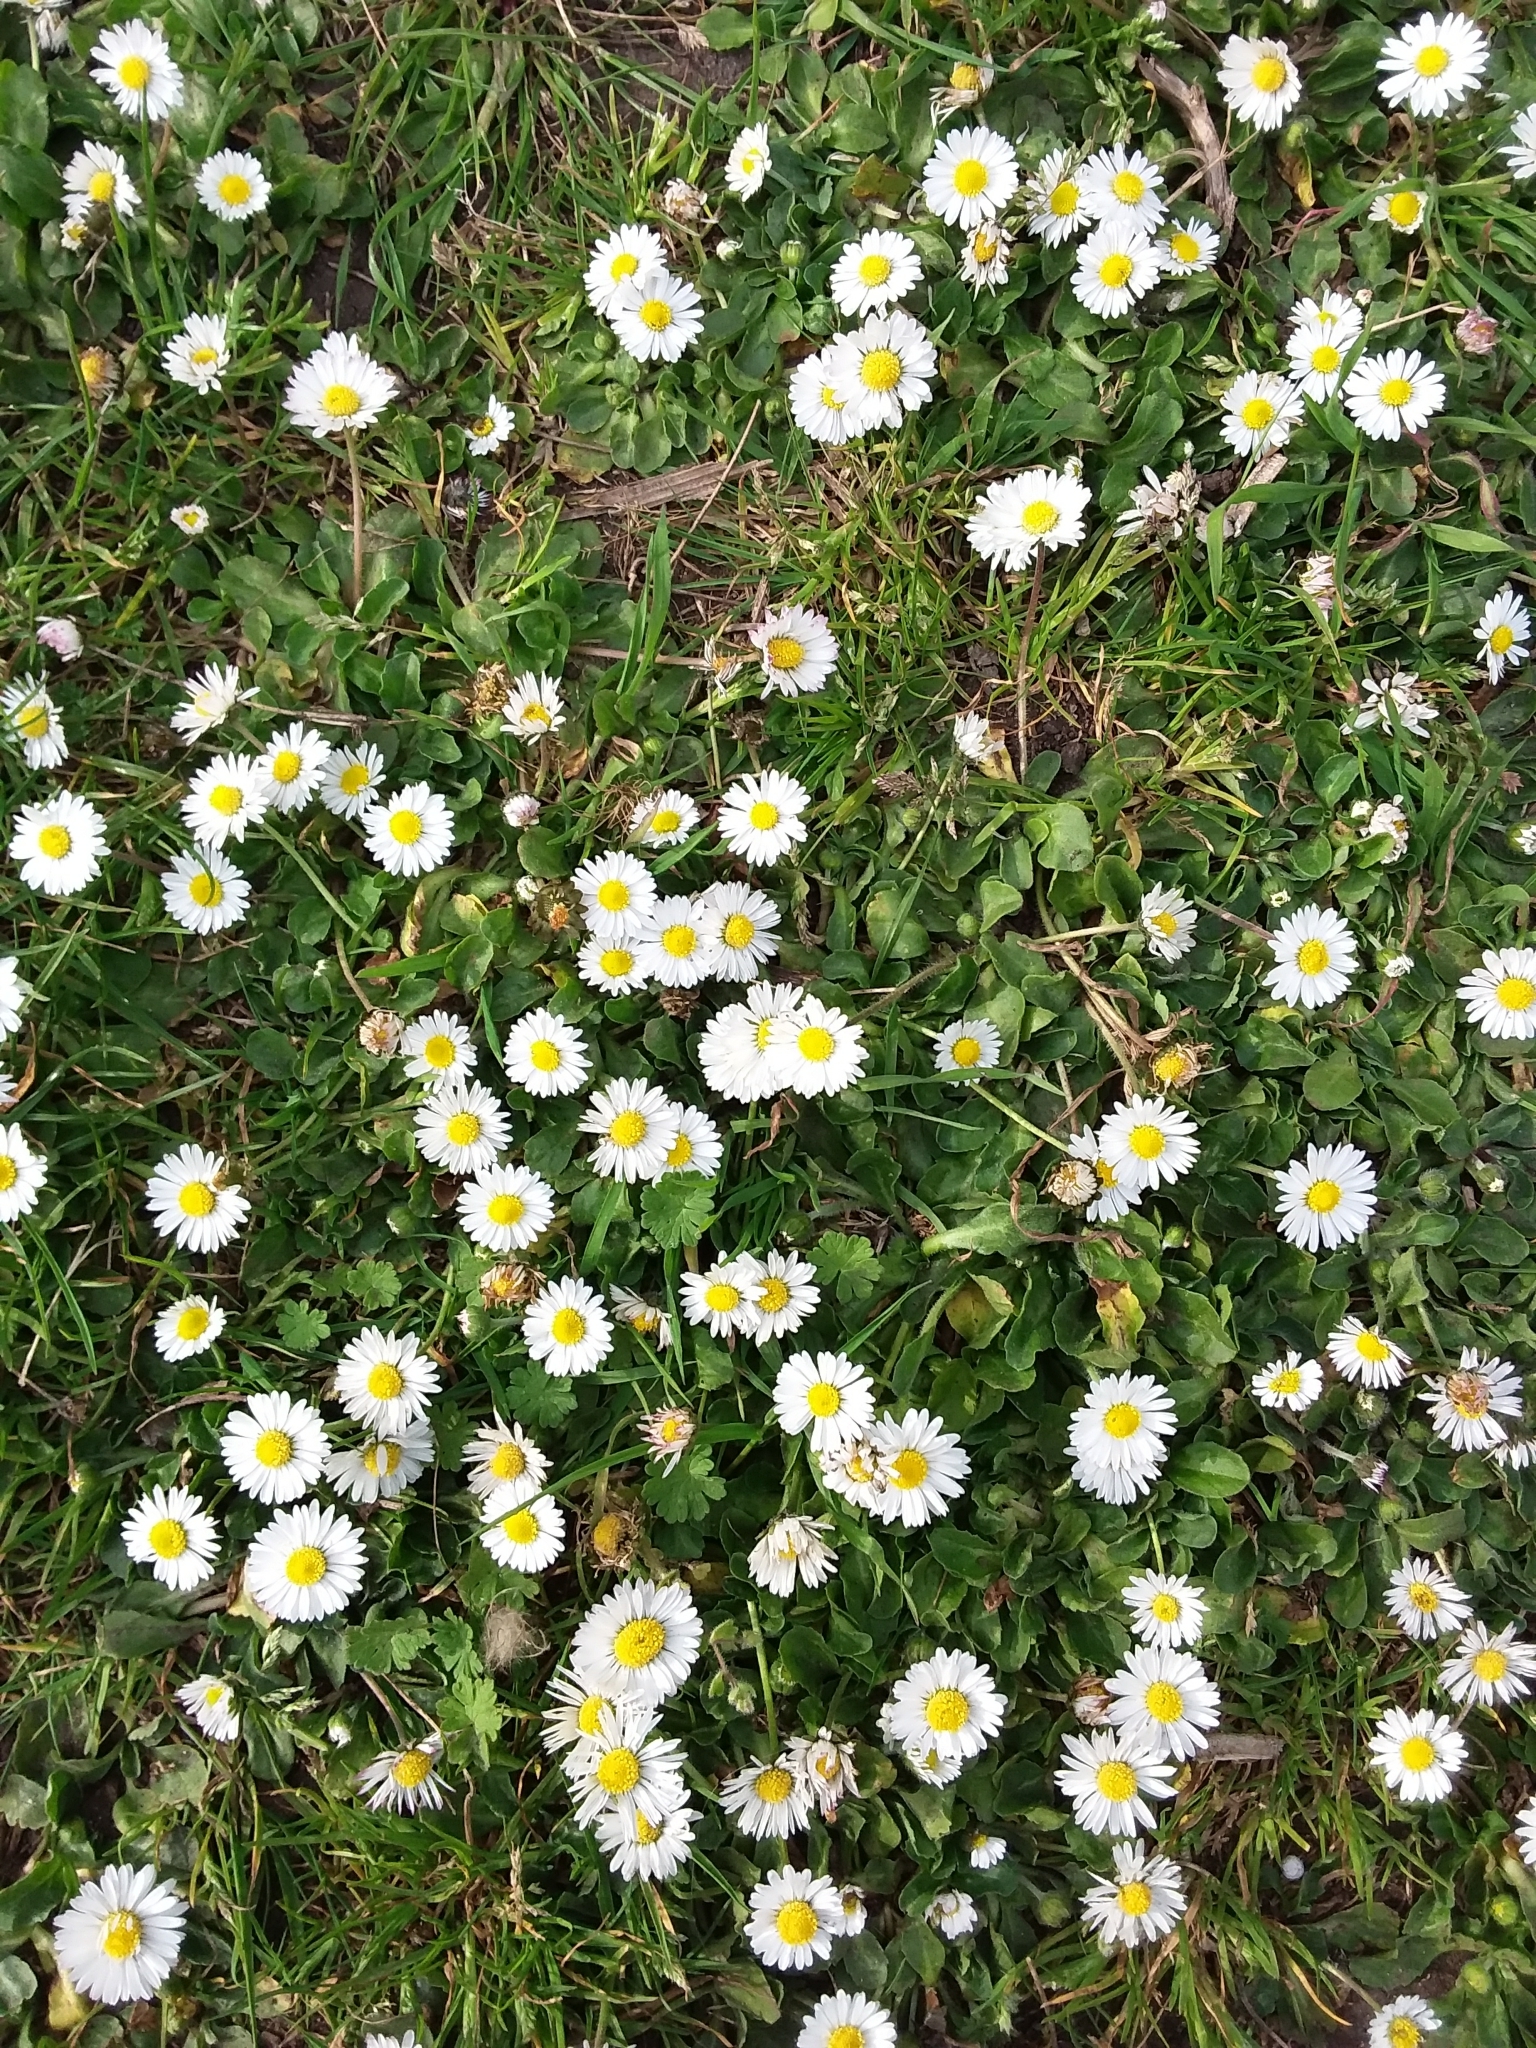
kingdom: Plantae
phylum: Tracheophyta
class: Magnoliopsida
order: Asterales
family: Asteraceae
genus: Bellis
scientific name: Bellis perennis
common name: Lawndaisy
